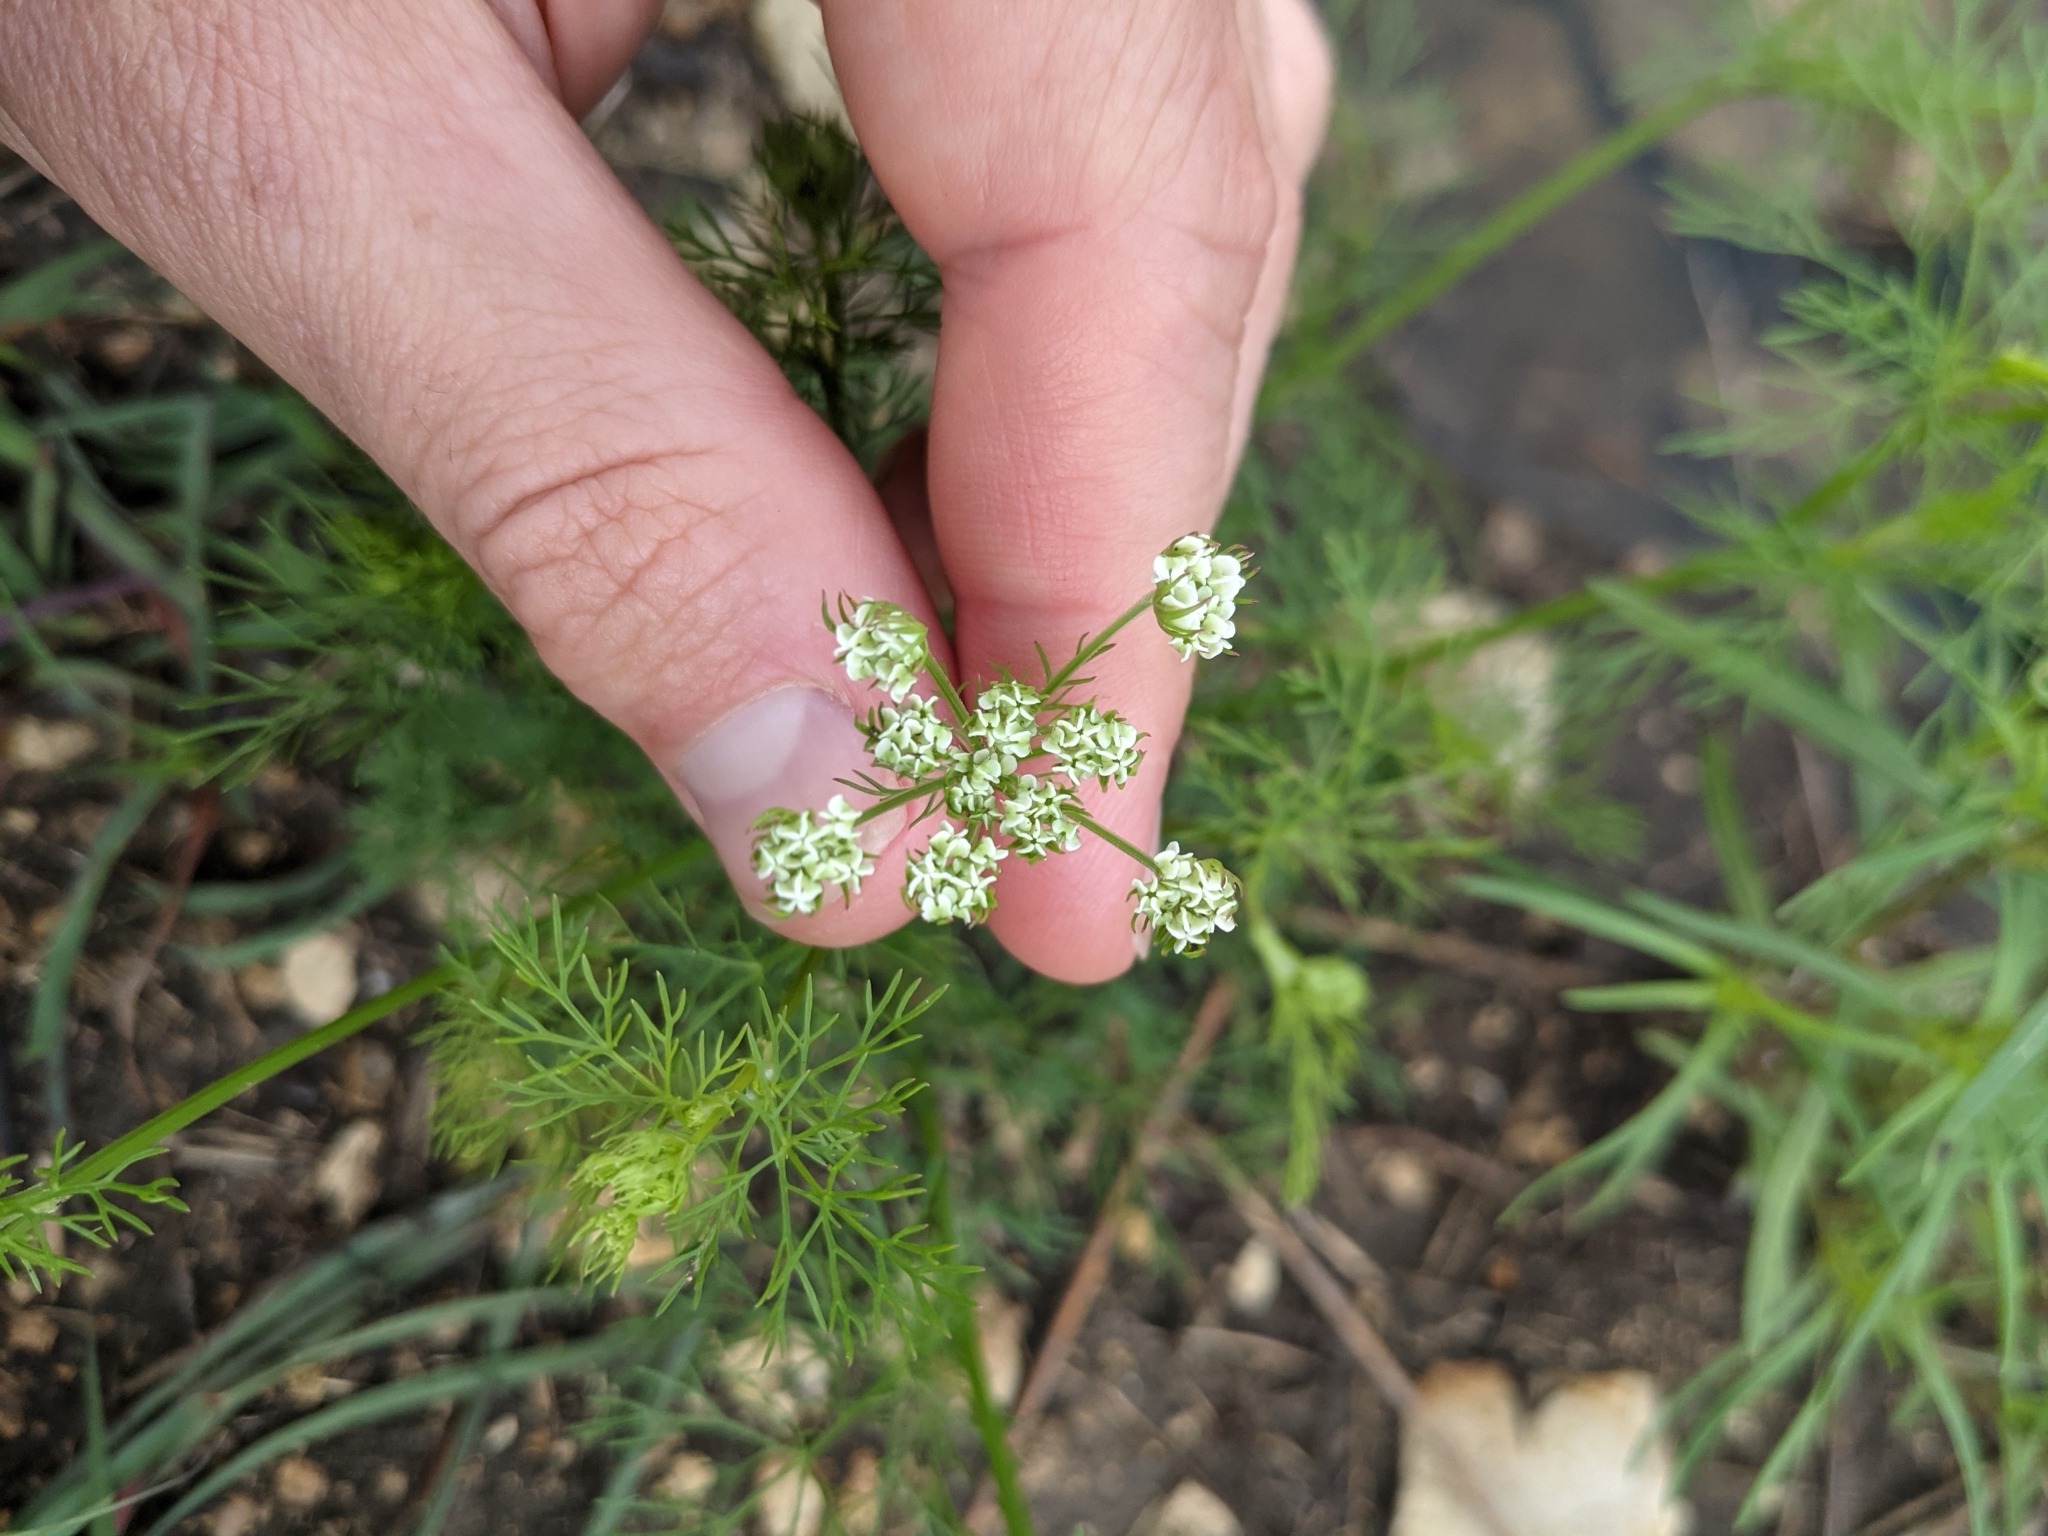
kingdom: Plantae
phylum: Tracheophyta
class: Magnoliopsida
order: Apiales
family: Apiaceae
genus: Atrema
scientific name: Atrema americanum
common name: Prairie-bishop
